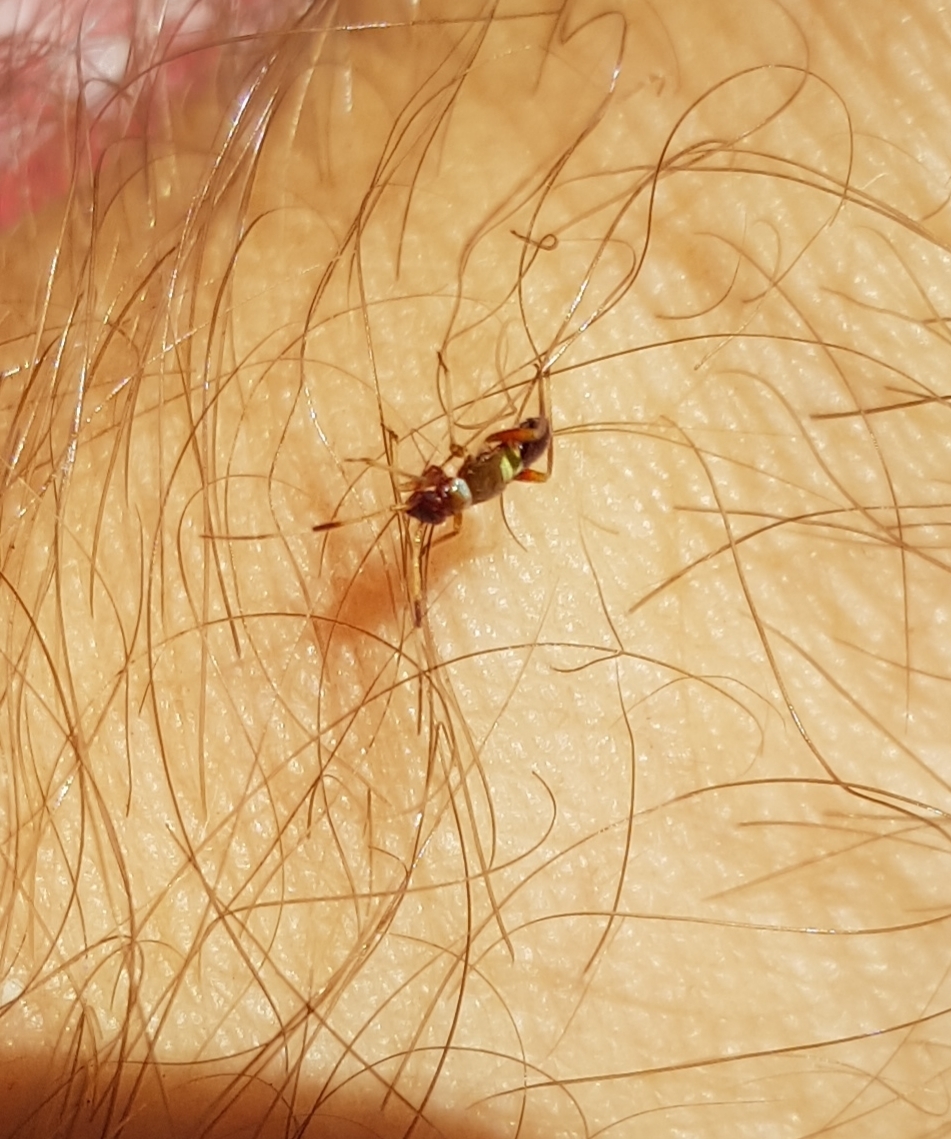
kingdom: Animalia
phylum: Arthropoda
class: Insecta
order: Hemiptera
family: Miridae
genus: Closterotomus
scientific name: Closterotomus biclavatus
